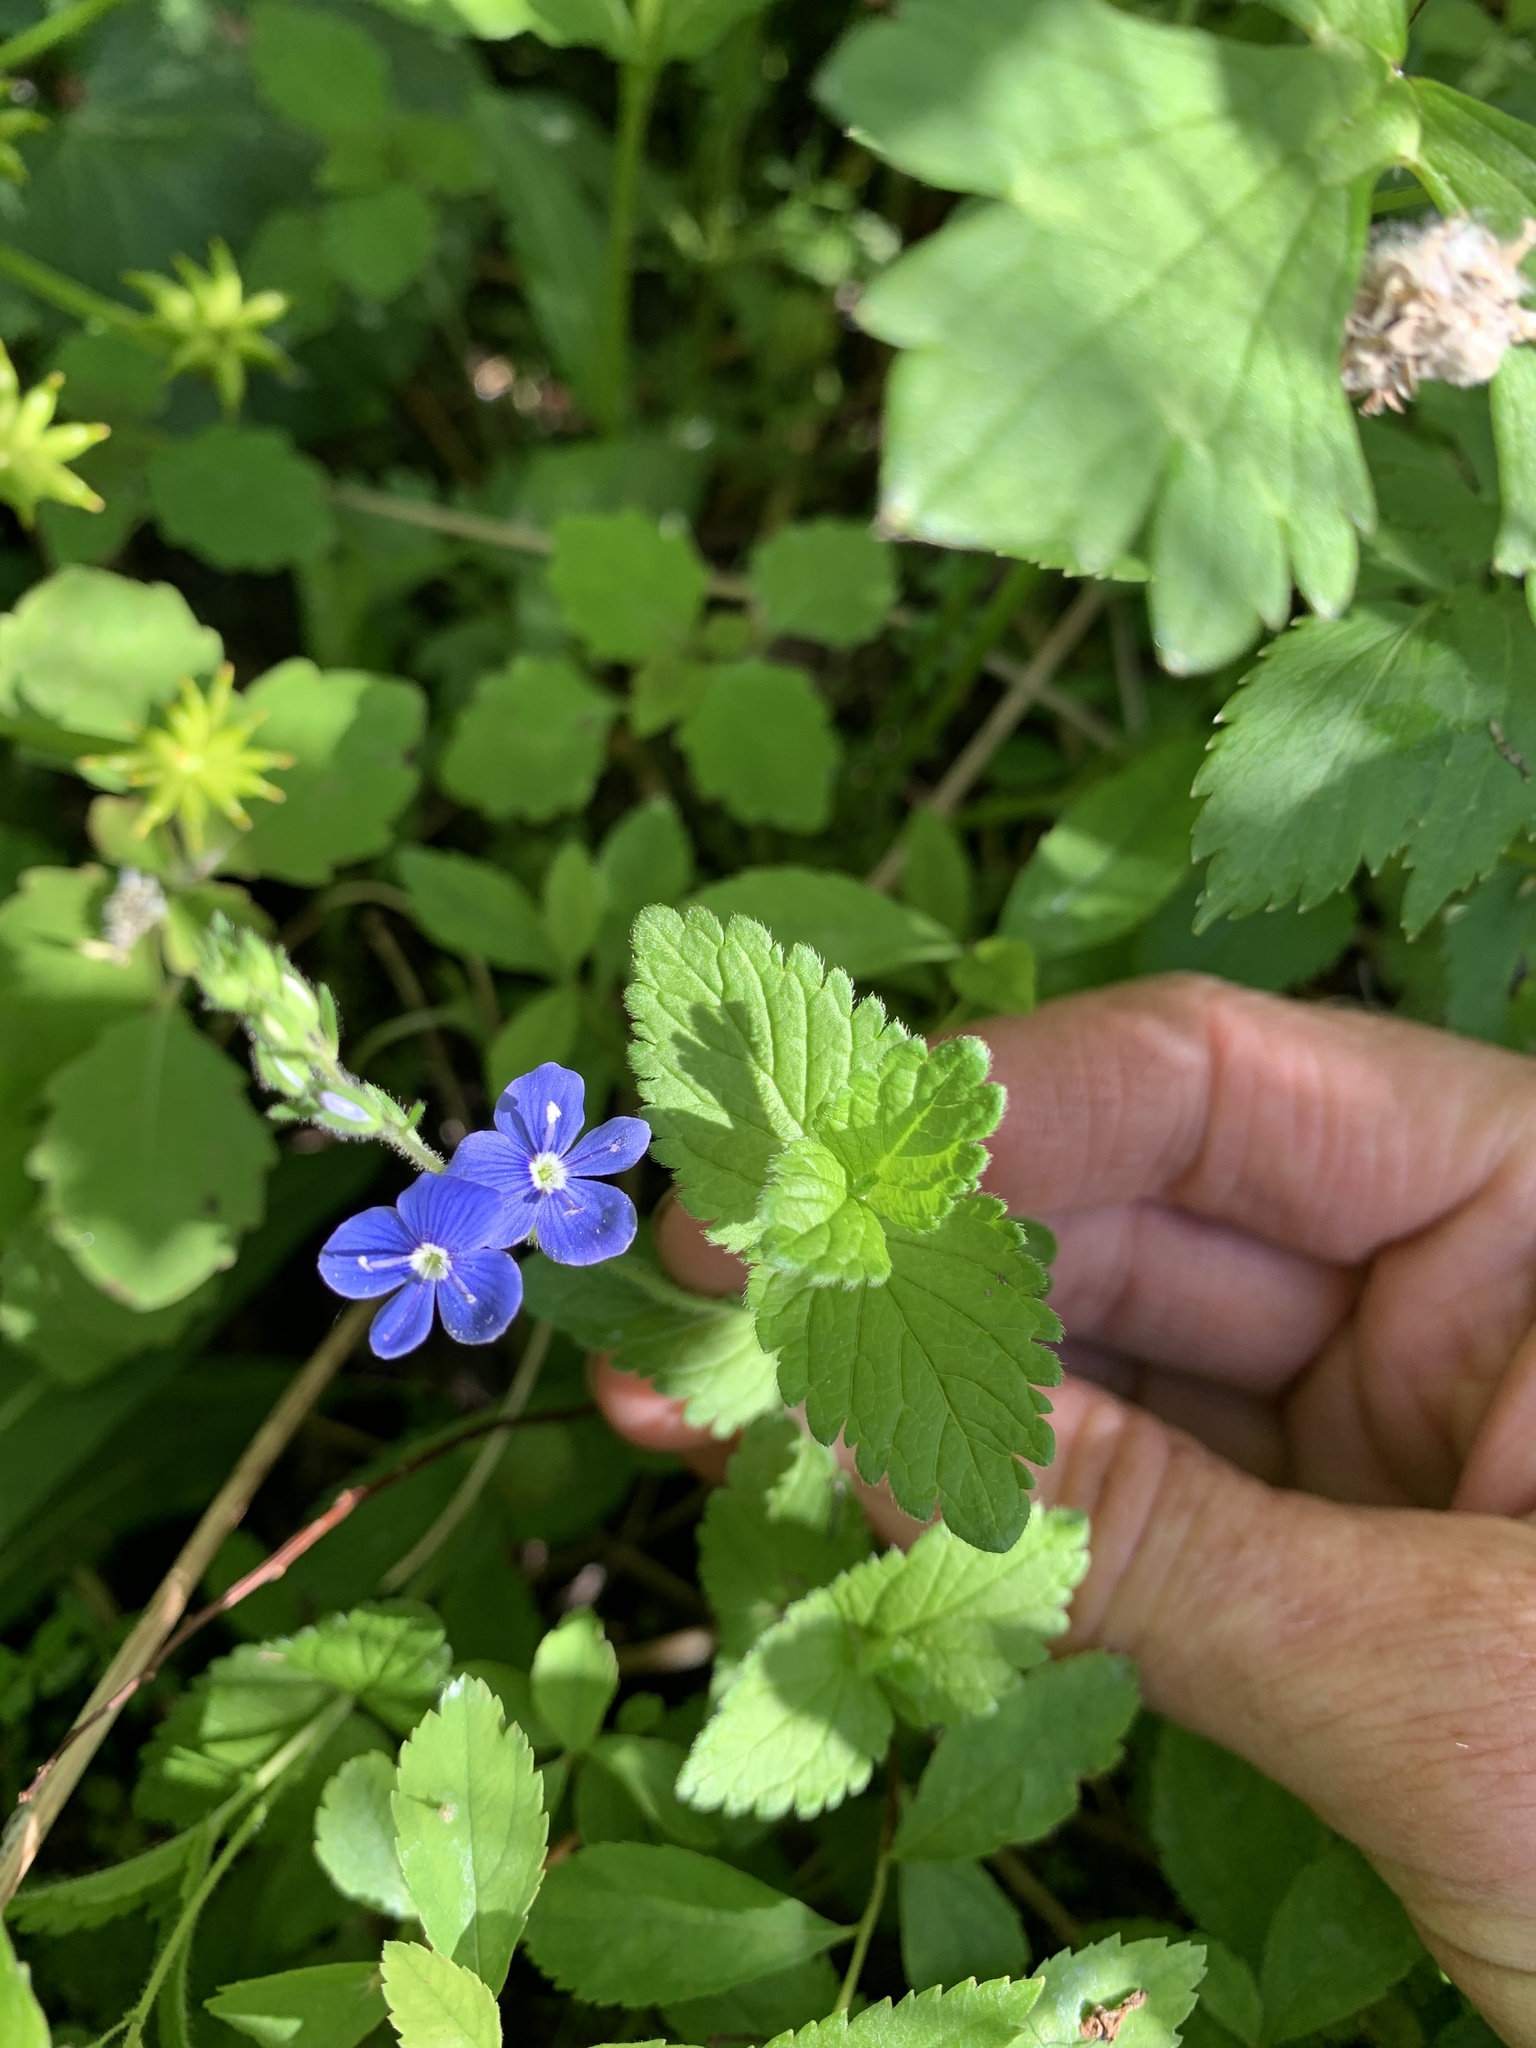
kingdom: Plantae
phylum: Tracheophyta
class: Magnoliopsida
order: Lamiales
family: Plantaginaceae
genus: Veronica
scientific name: Veronica chamaedrys
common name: Germander speedwell
